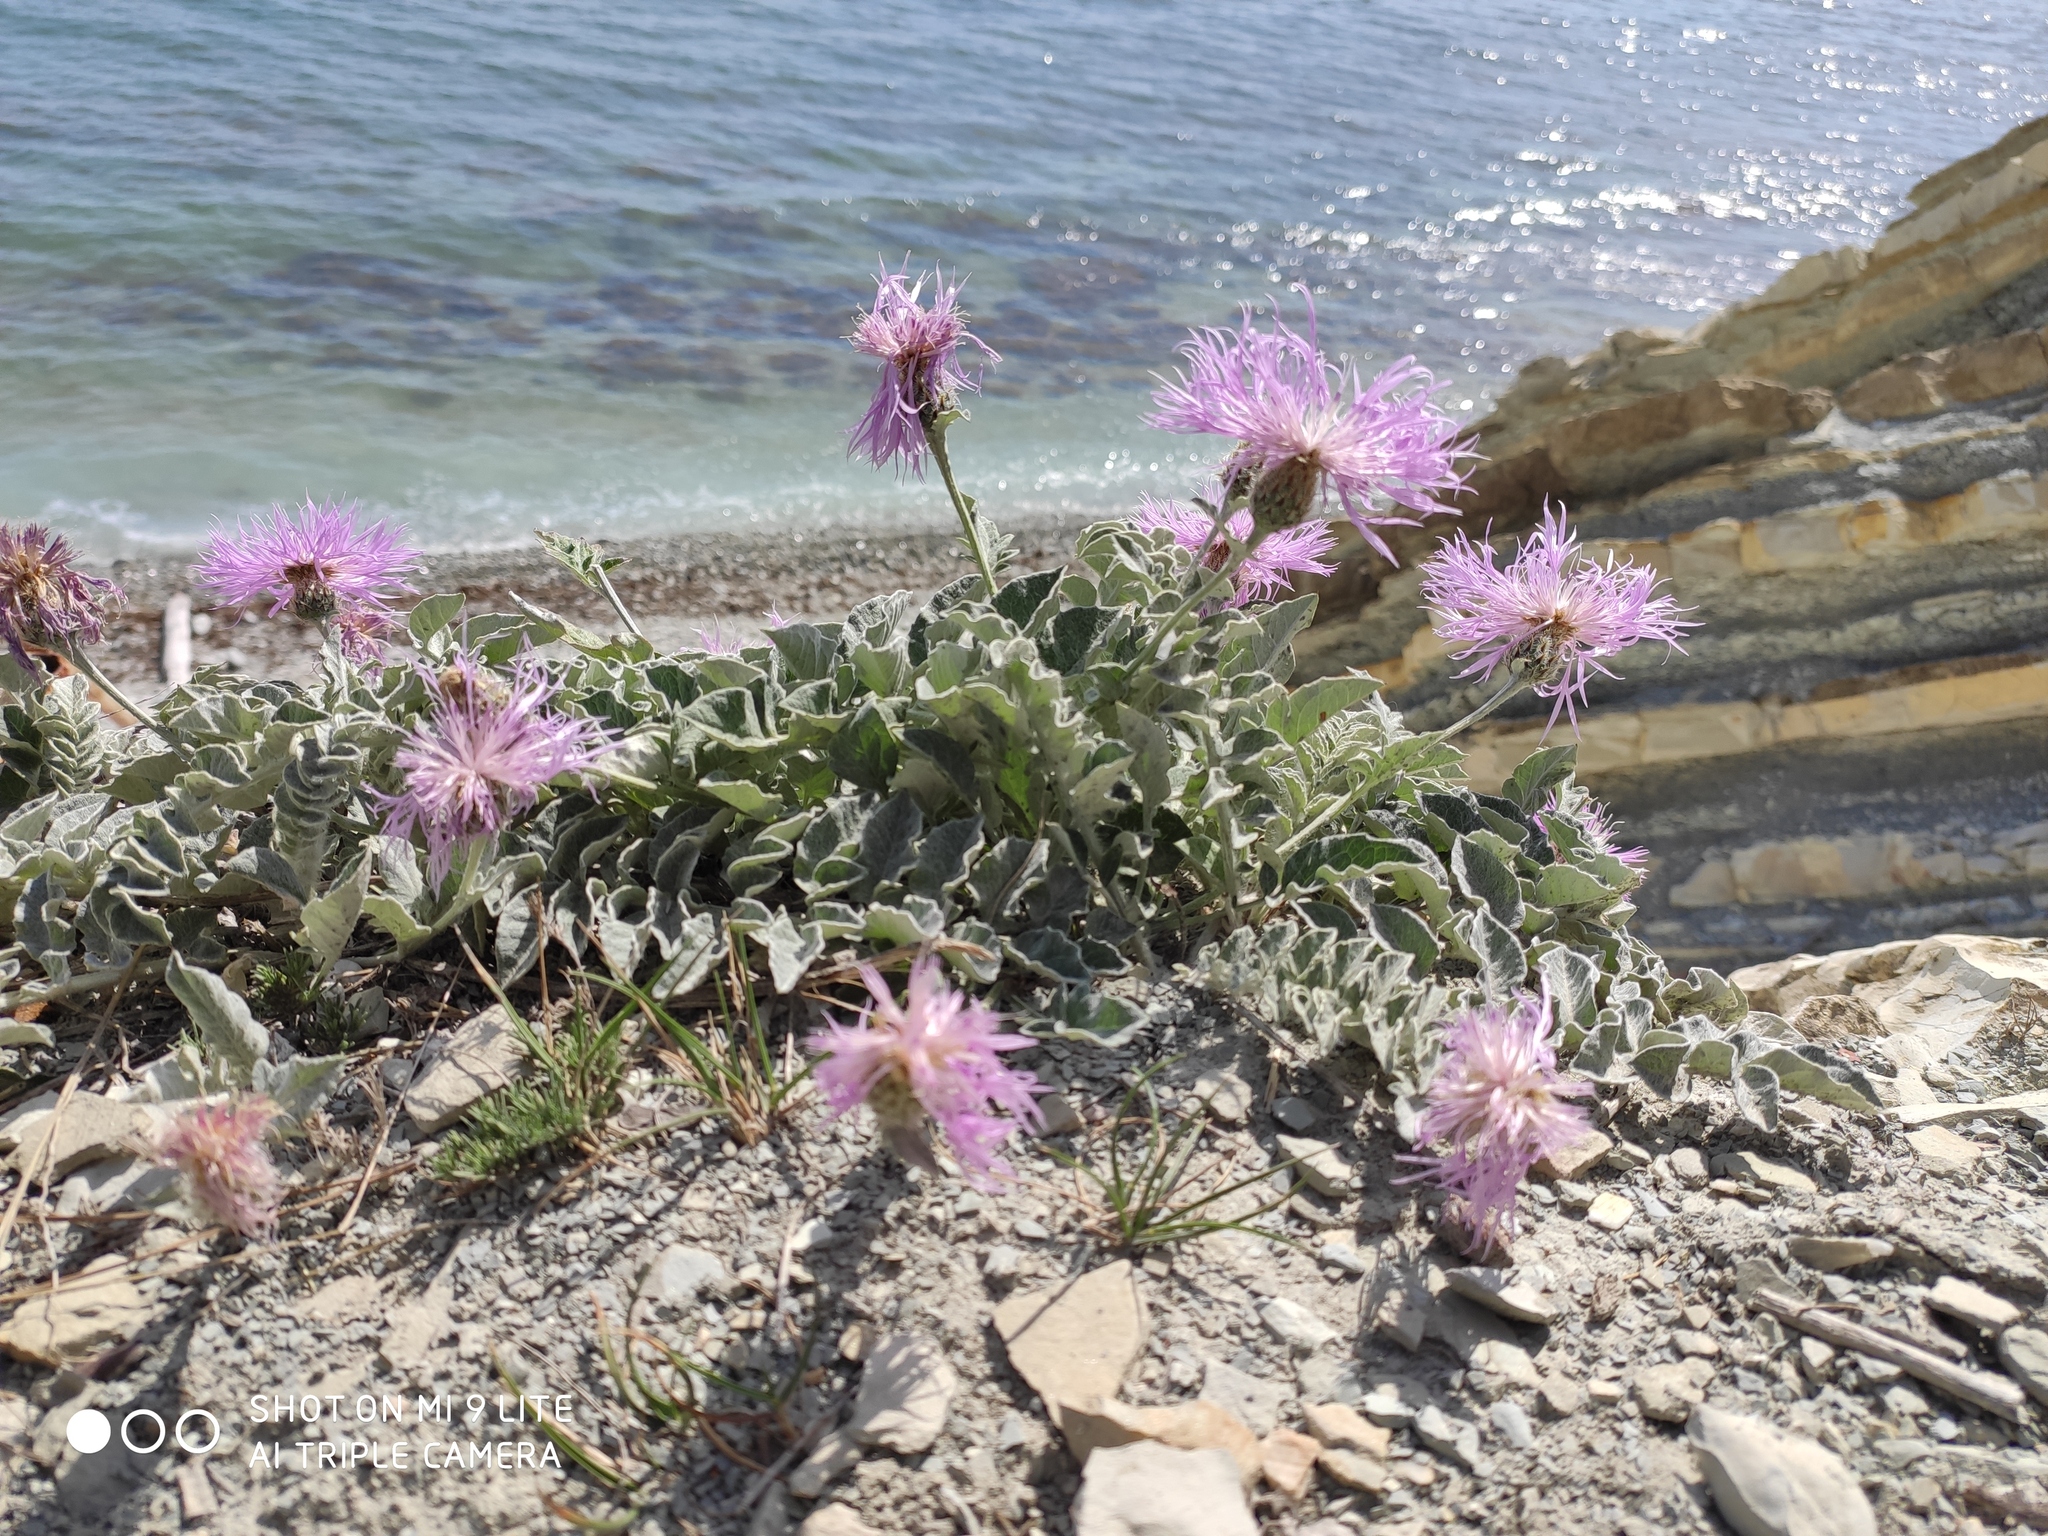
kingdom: Plantae
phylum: Tracheophyta
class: Magnoliopsida
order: Asterales
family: Asteraceae
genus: Psephellus
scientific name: Psephellus declinatus
